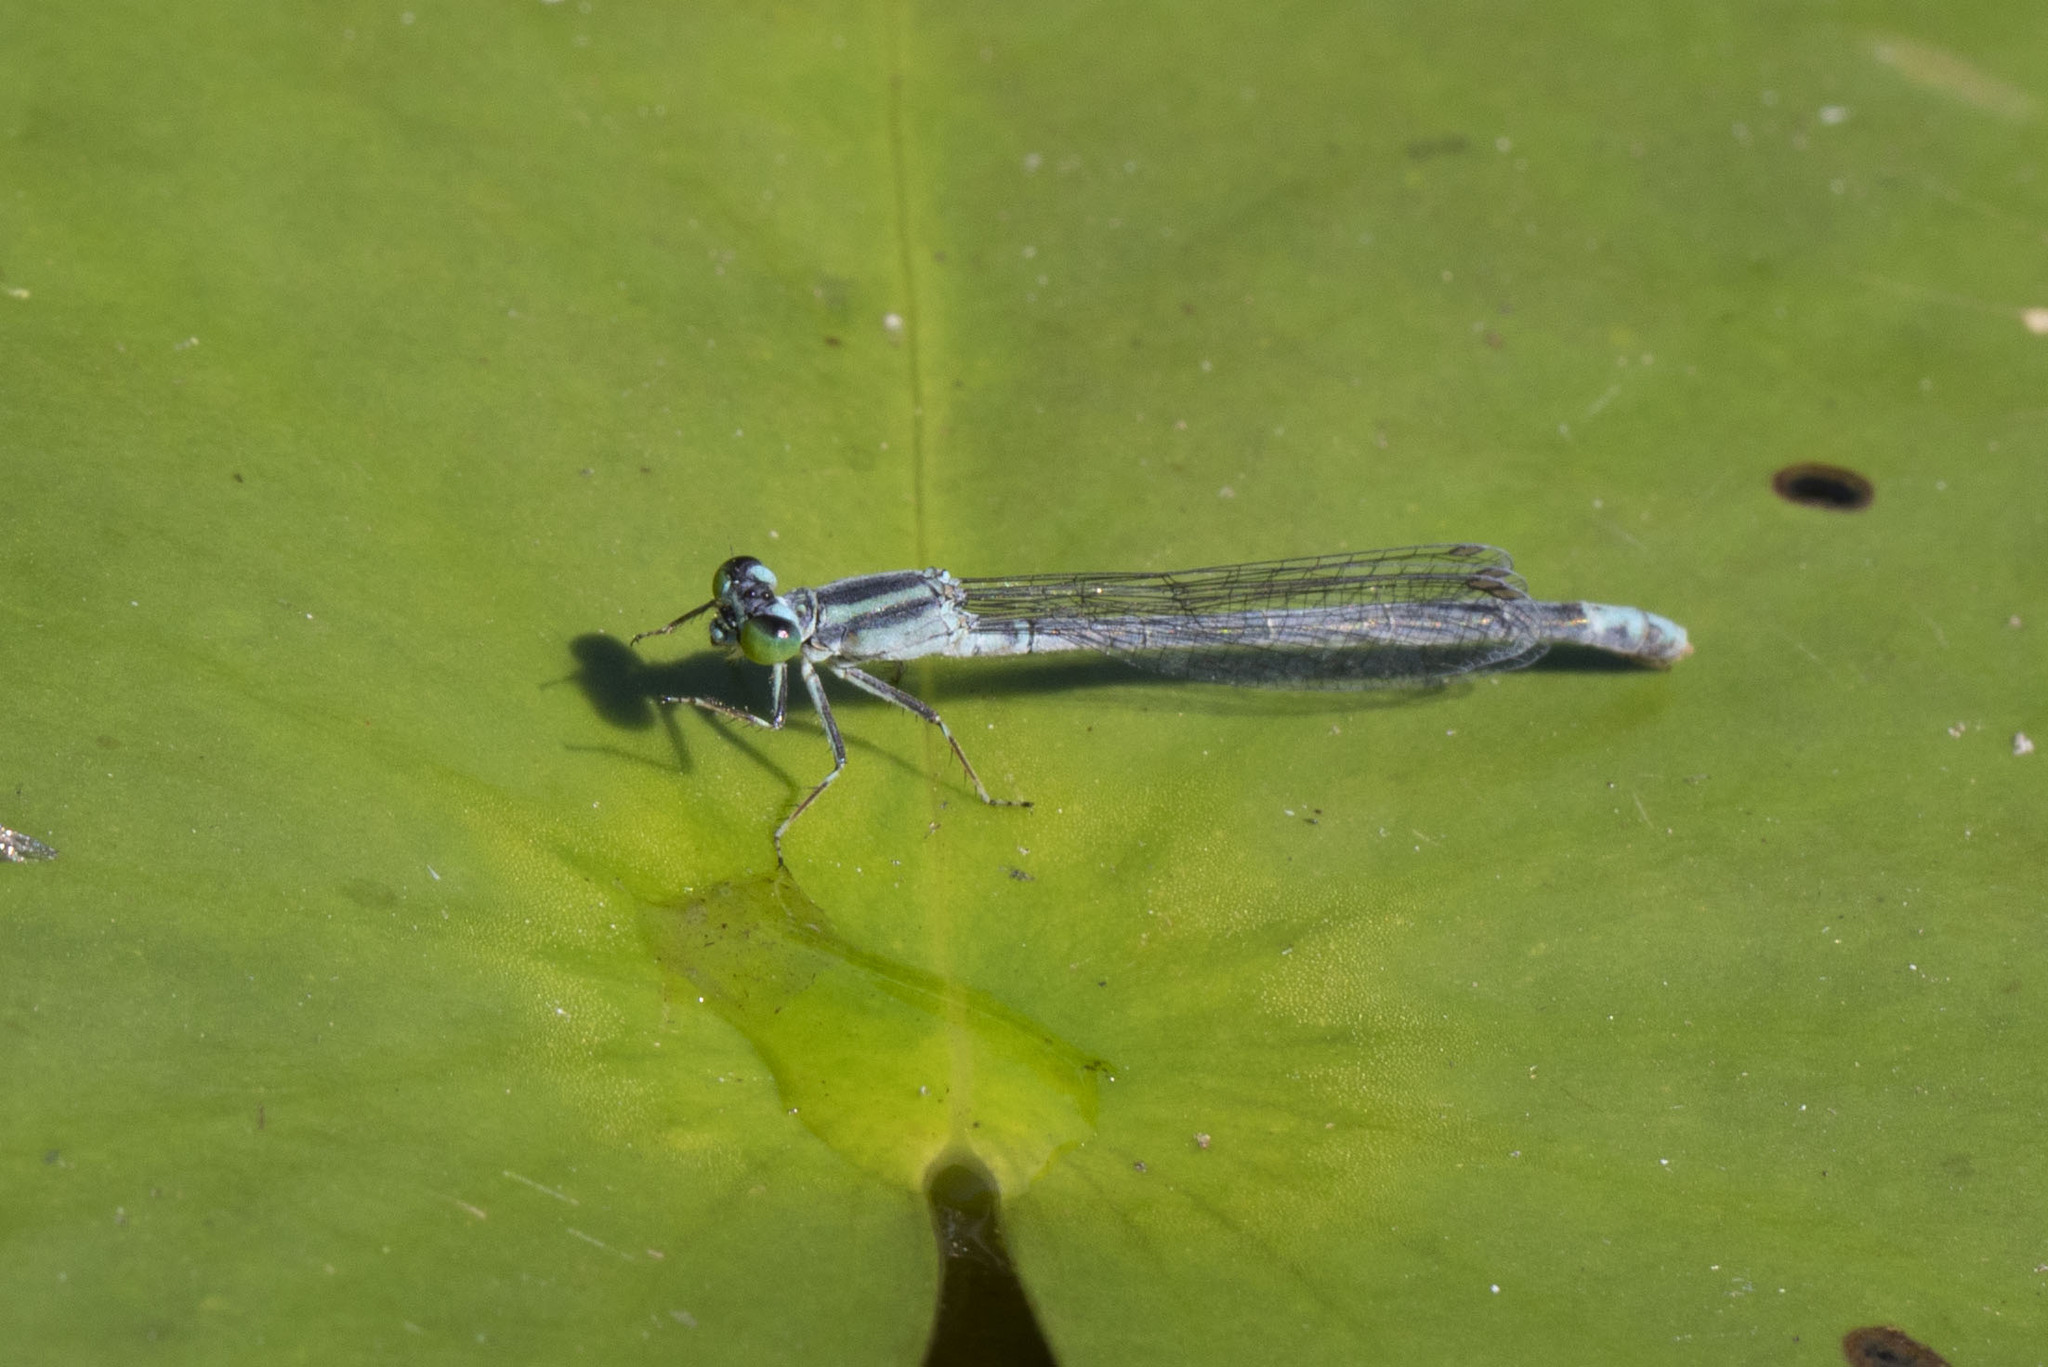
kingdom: Animalia
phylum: Arthropoda
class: Insecta
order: Odonata
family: Coenagrionidae
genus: Ischnura
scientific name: Ischnura kellicotti
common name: Lilypad forktail
